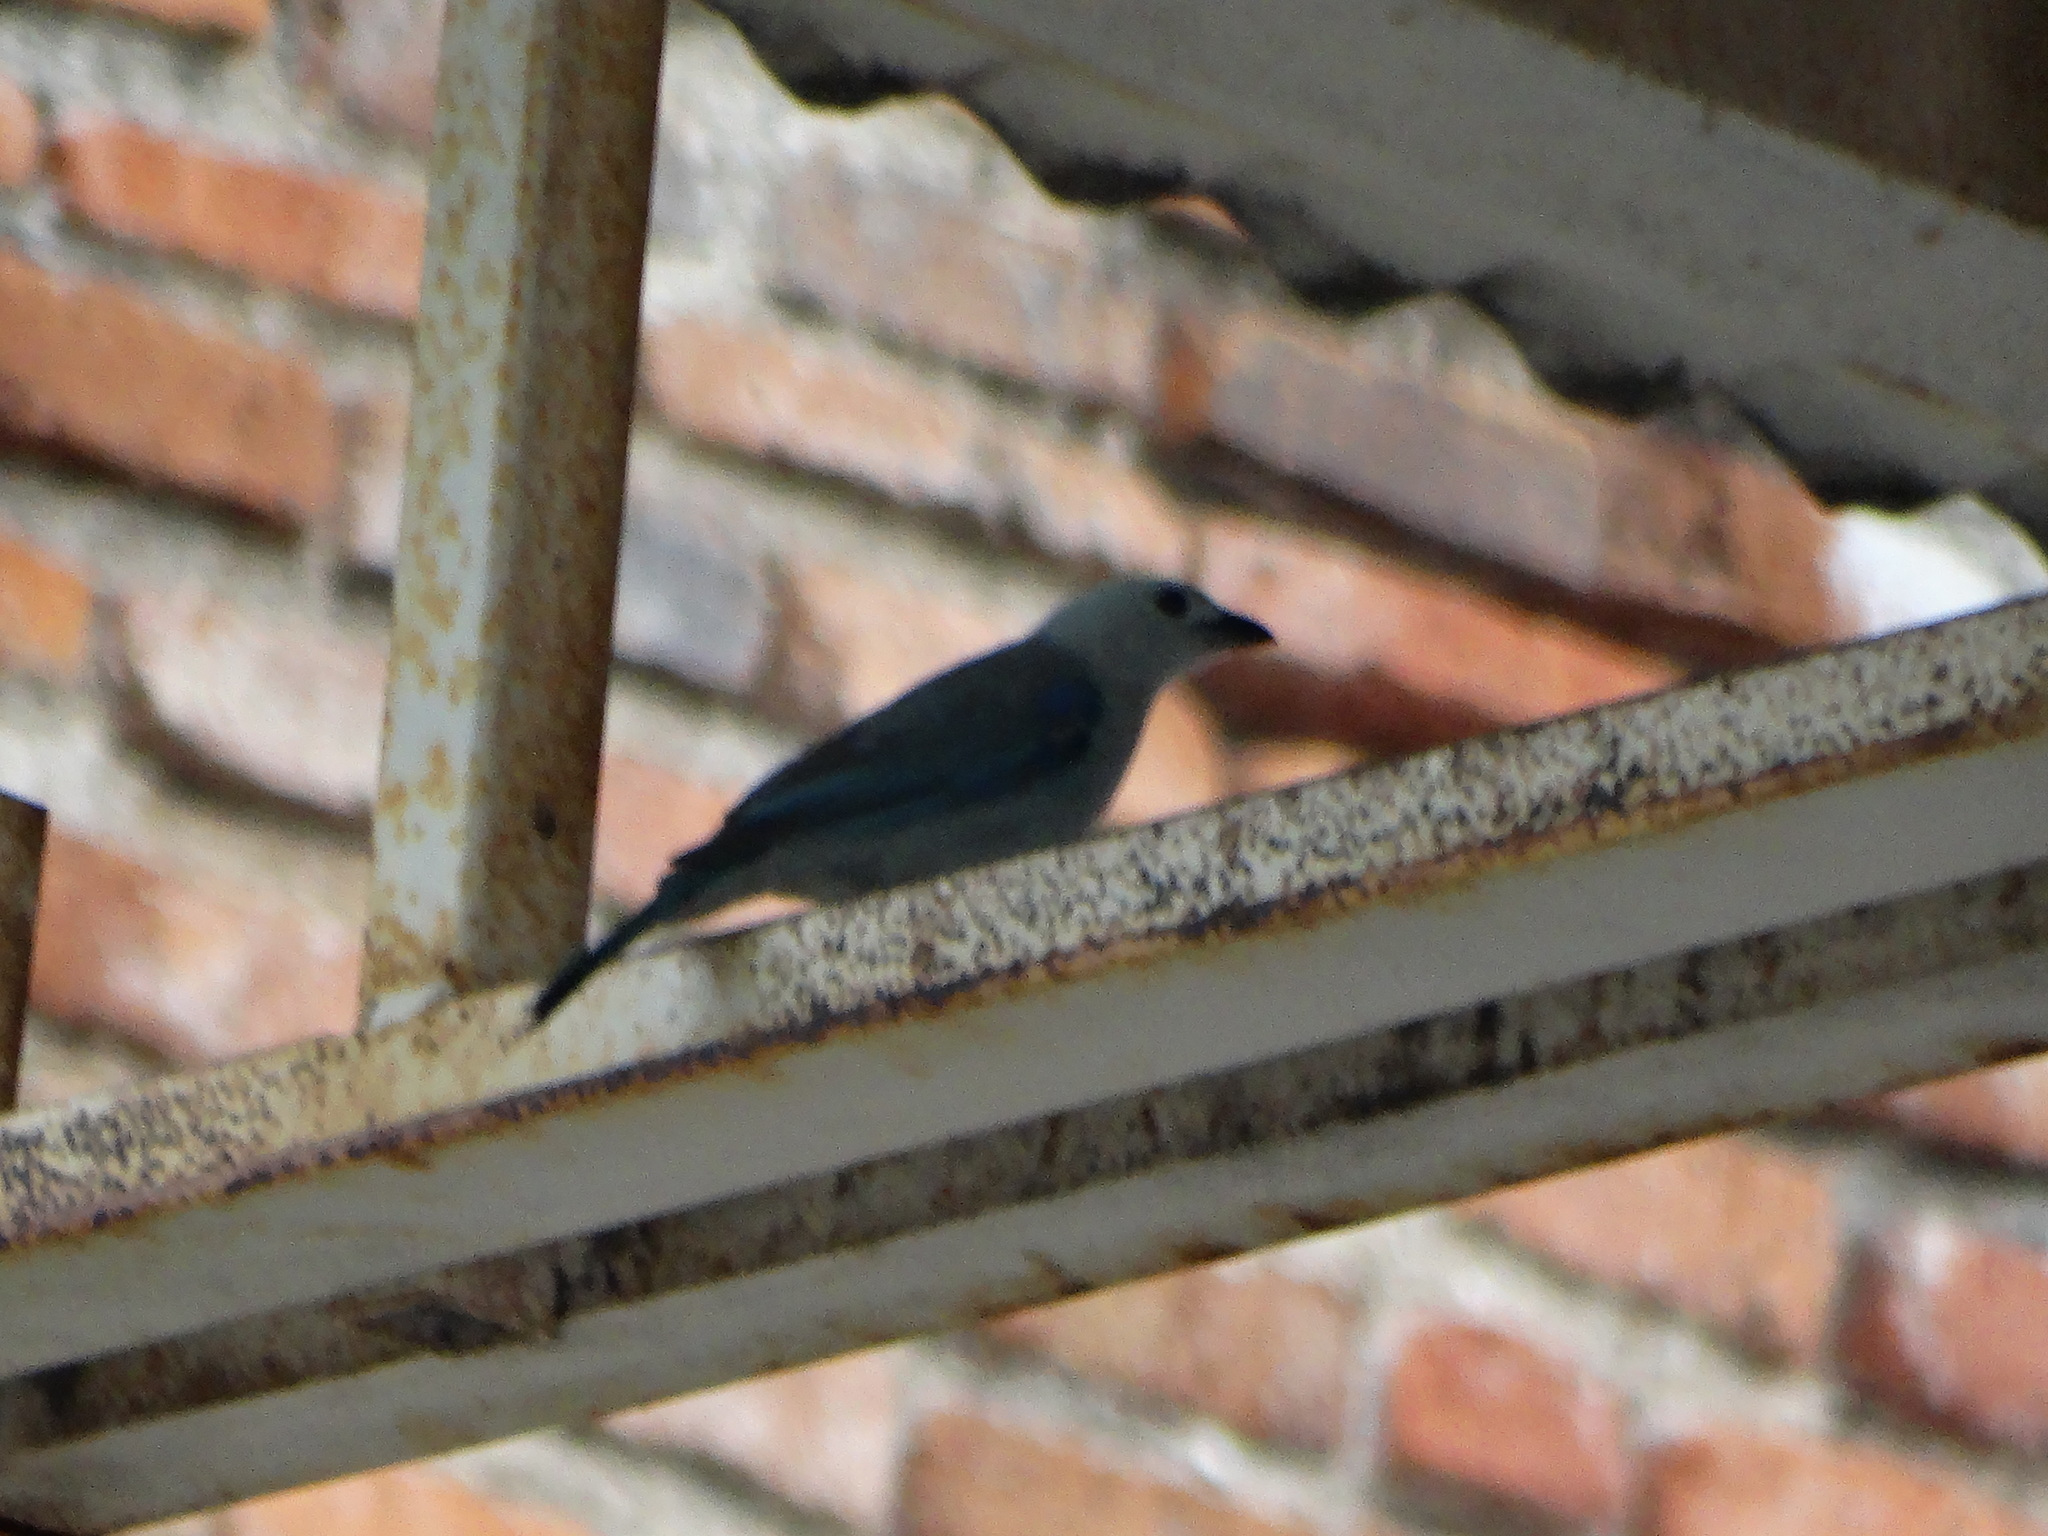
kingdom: Animalia
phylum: Chordata
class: Aves
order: Passeriformes
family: Thraupidae
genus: Thraupis
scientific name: Thraupis episcopus
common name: Blue-grey tanager
